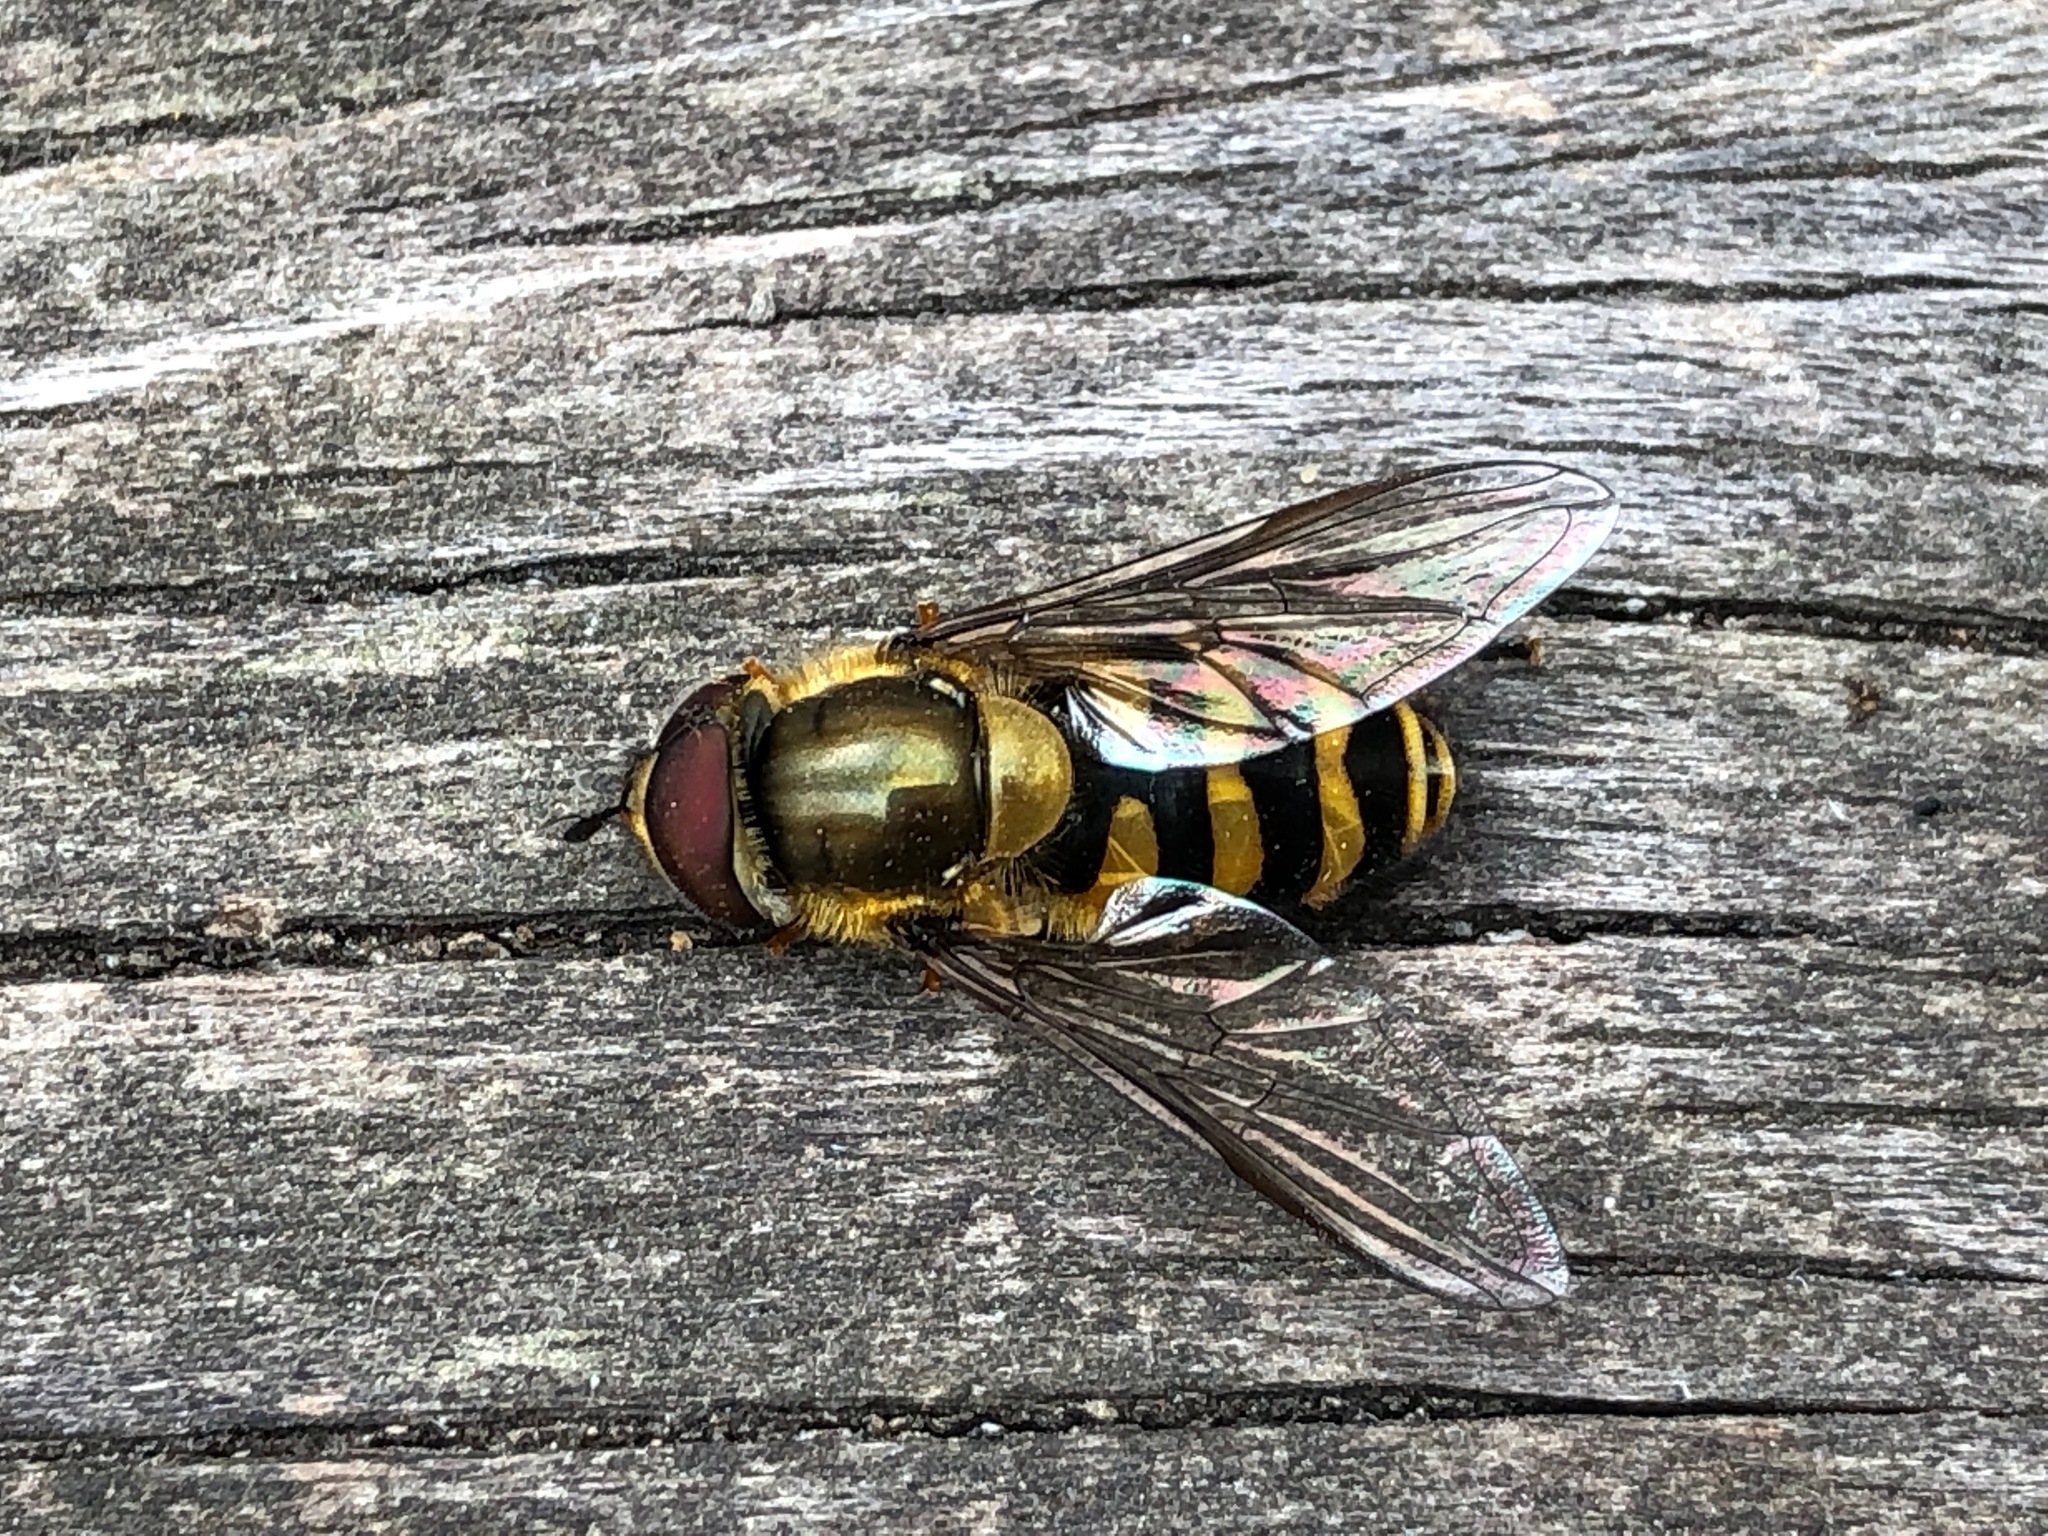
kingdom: Animalia
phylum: Arthropoda
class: Insecta
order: Diptera
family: Syrphidae
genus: Syrphus
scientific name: Syrphus
